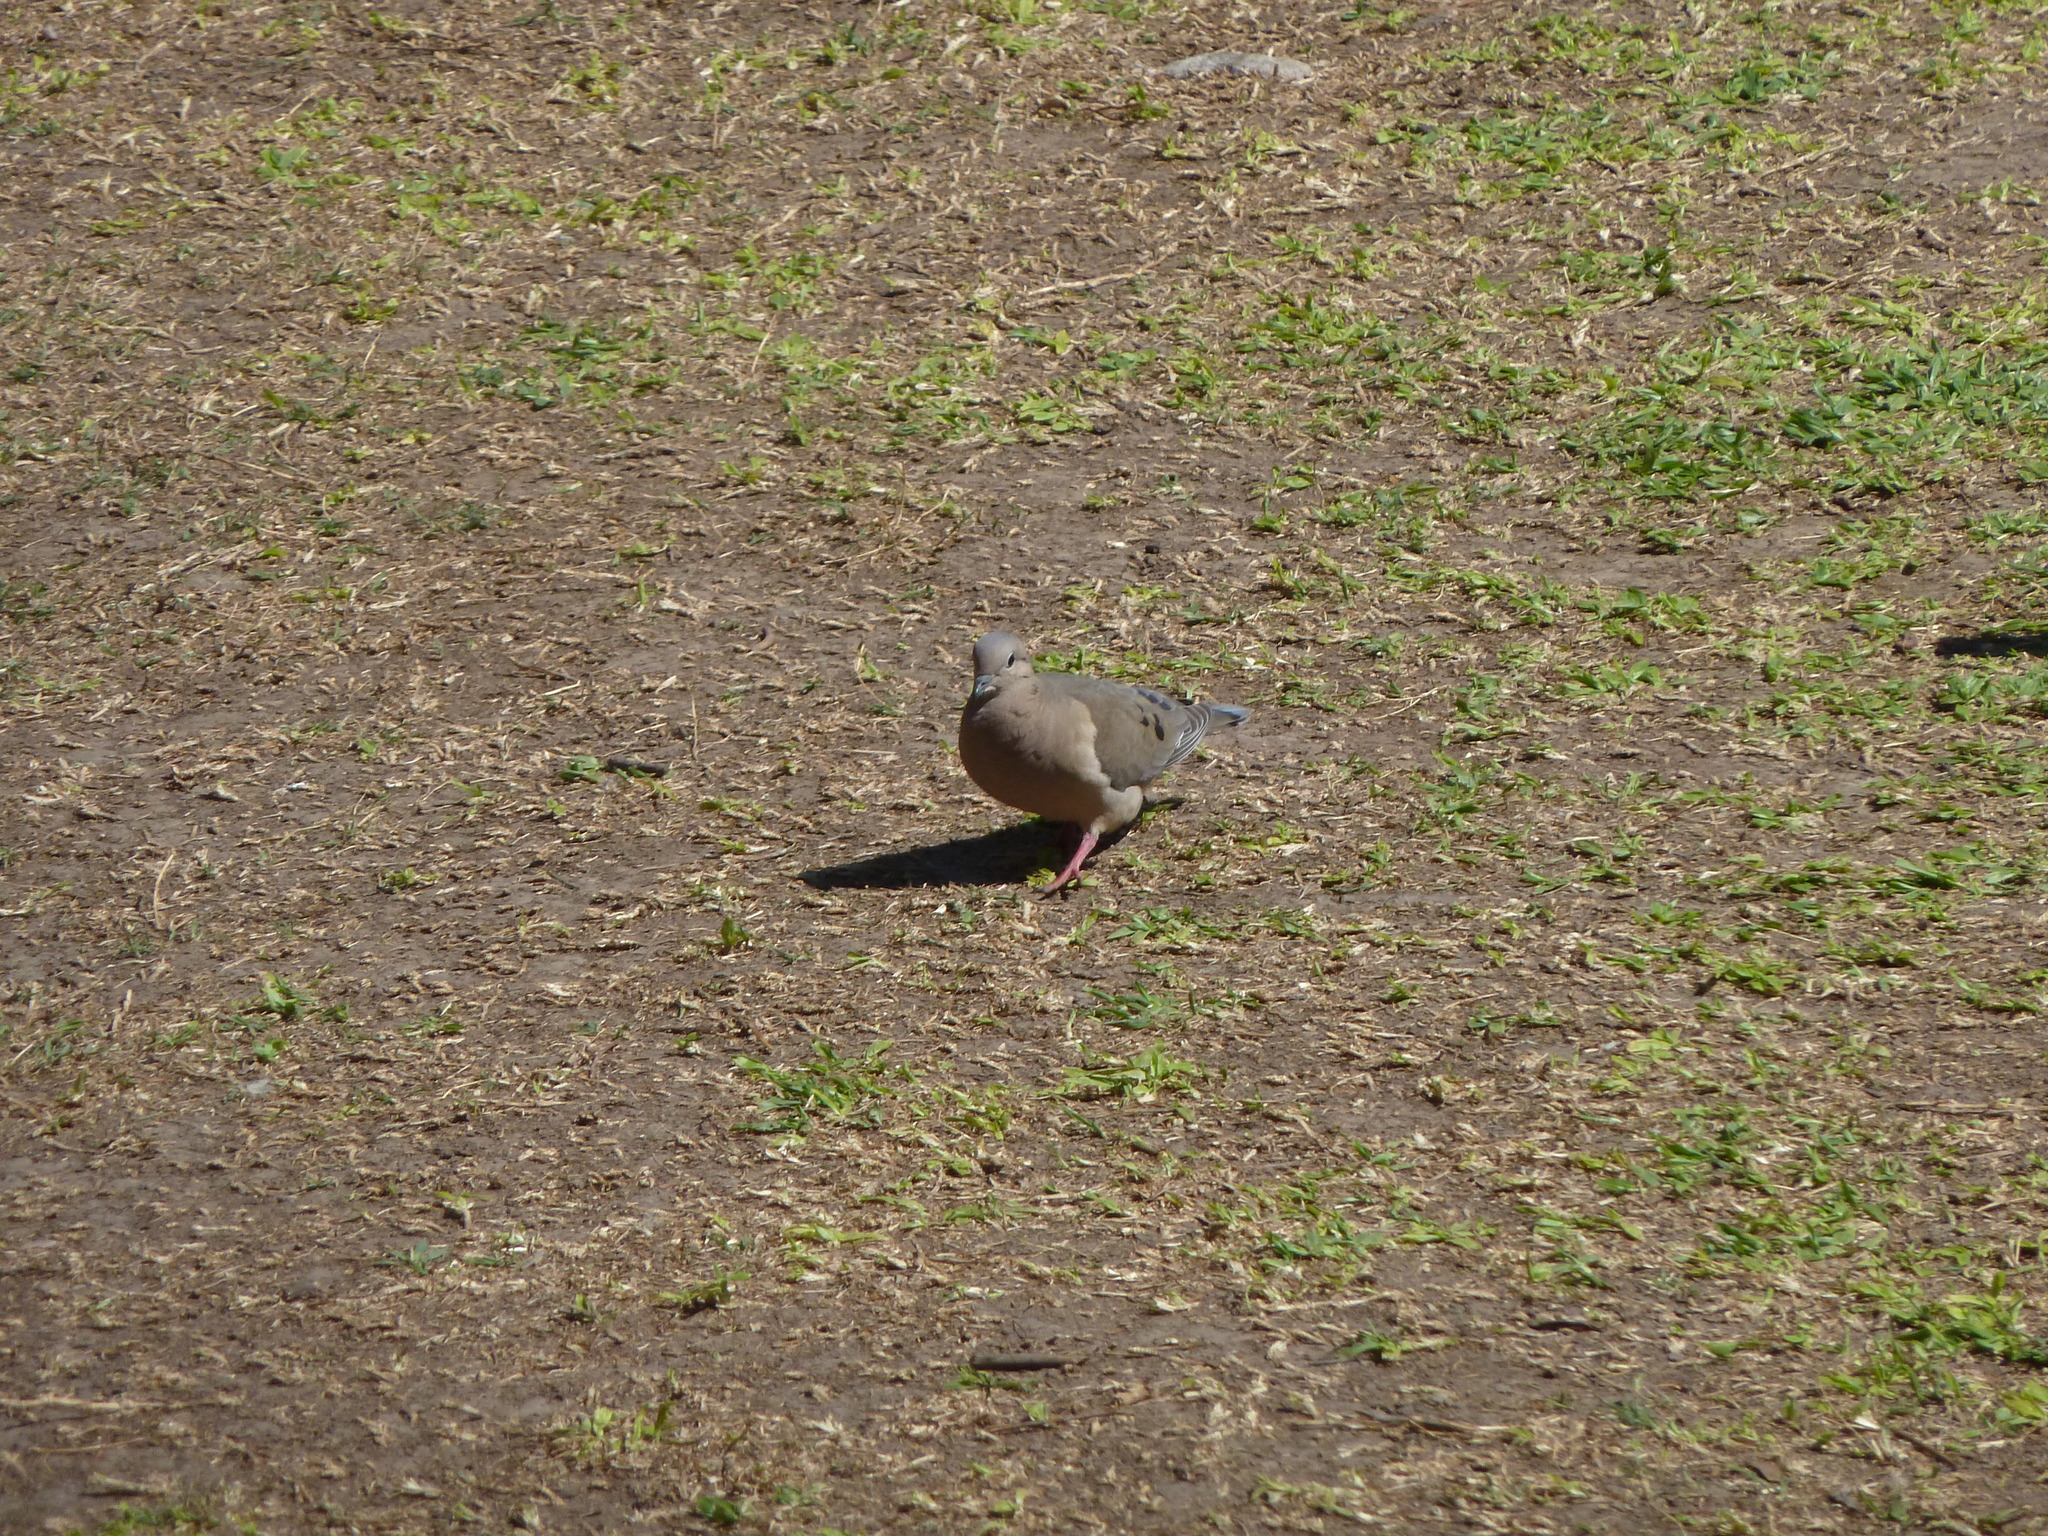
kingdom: Animalia
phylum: Chordata
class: Aves
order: Columbiformes
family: Columbidae
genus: Zenaida
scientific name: Zenaida auriculata
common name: Eared dove
